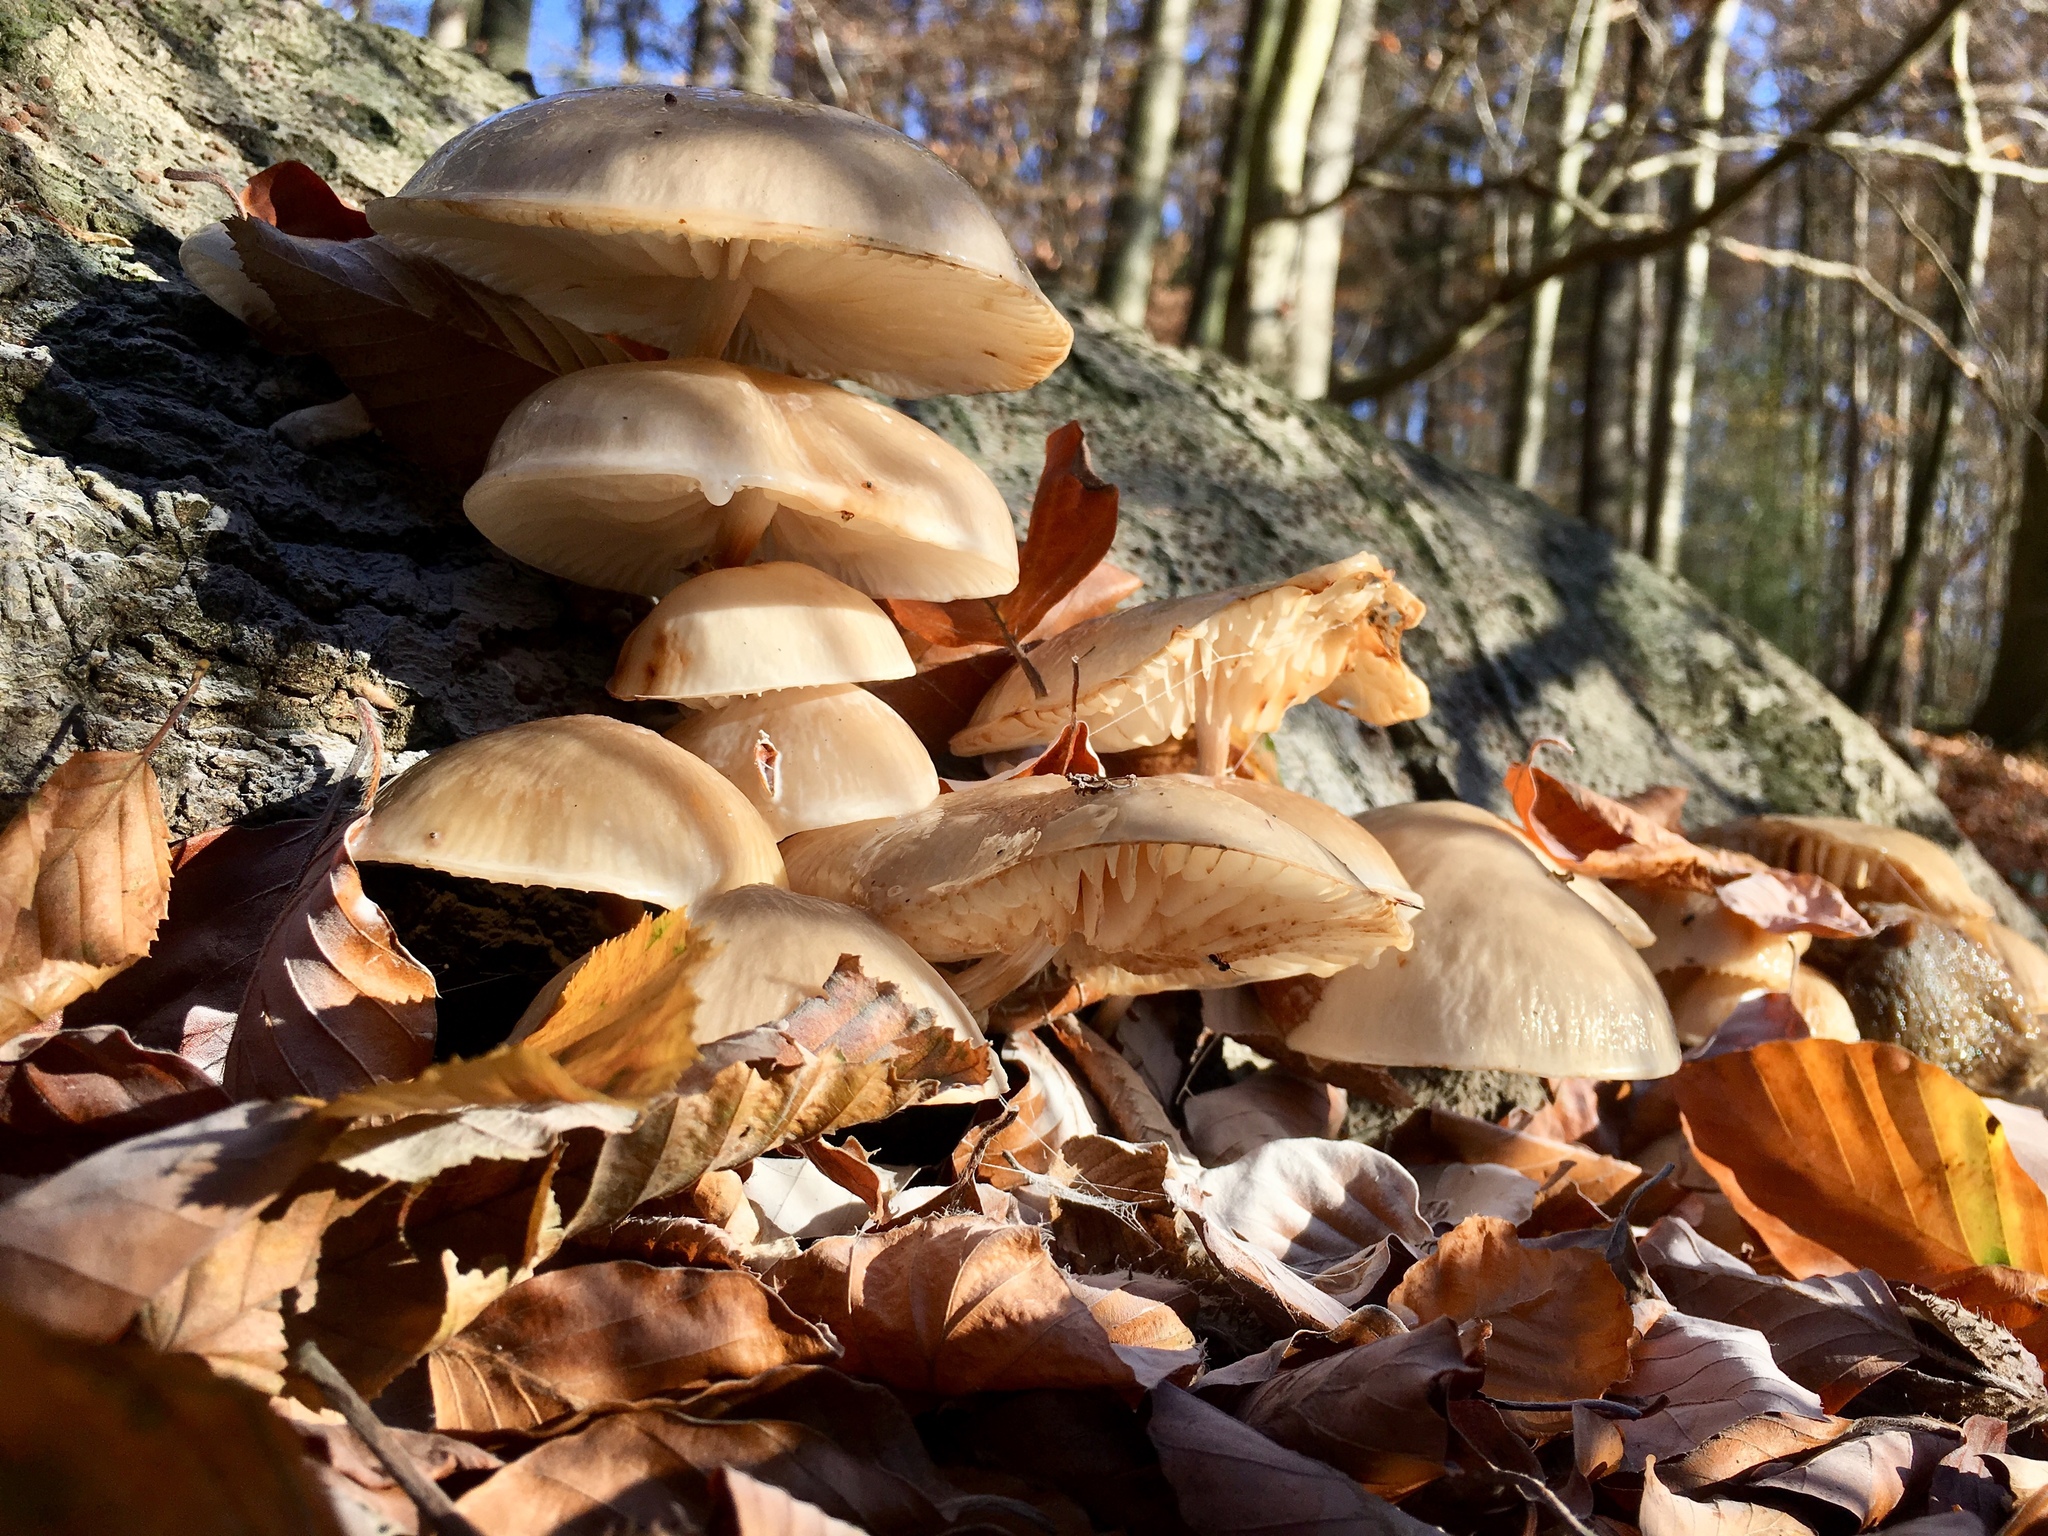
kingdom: Fungi
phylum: Basidiomycota
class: Agaricomycetes
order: Agaricales
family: Physalacriaceae
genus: Mucidula
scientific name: Mucidula mucida
